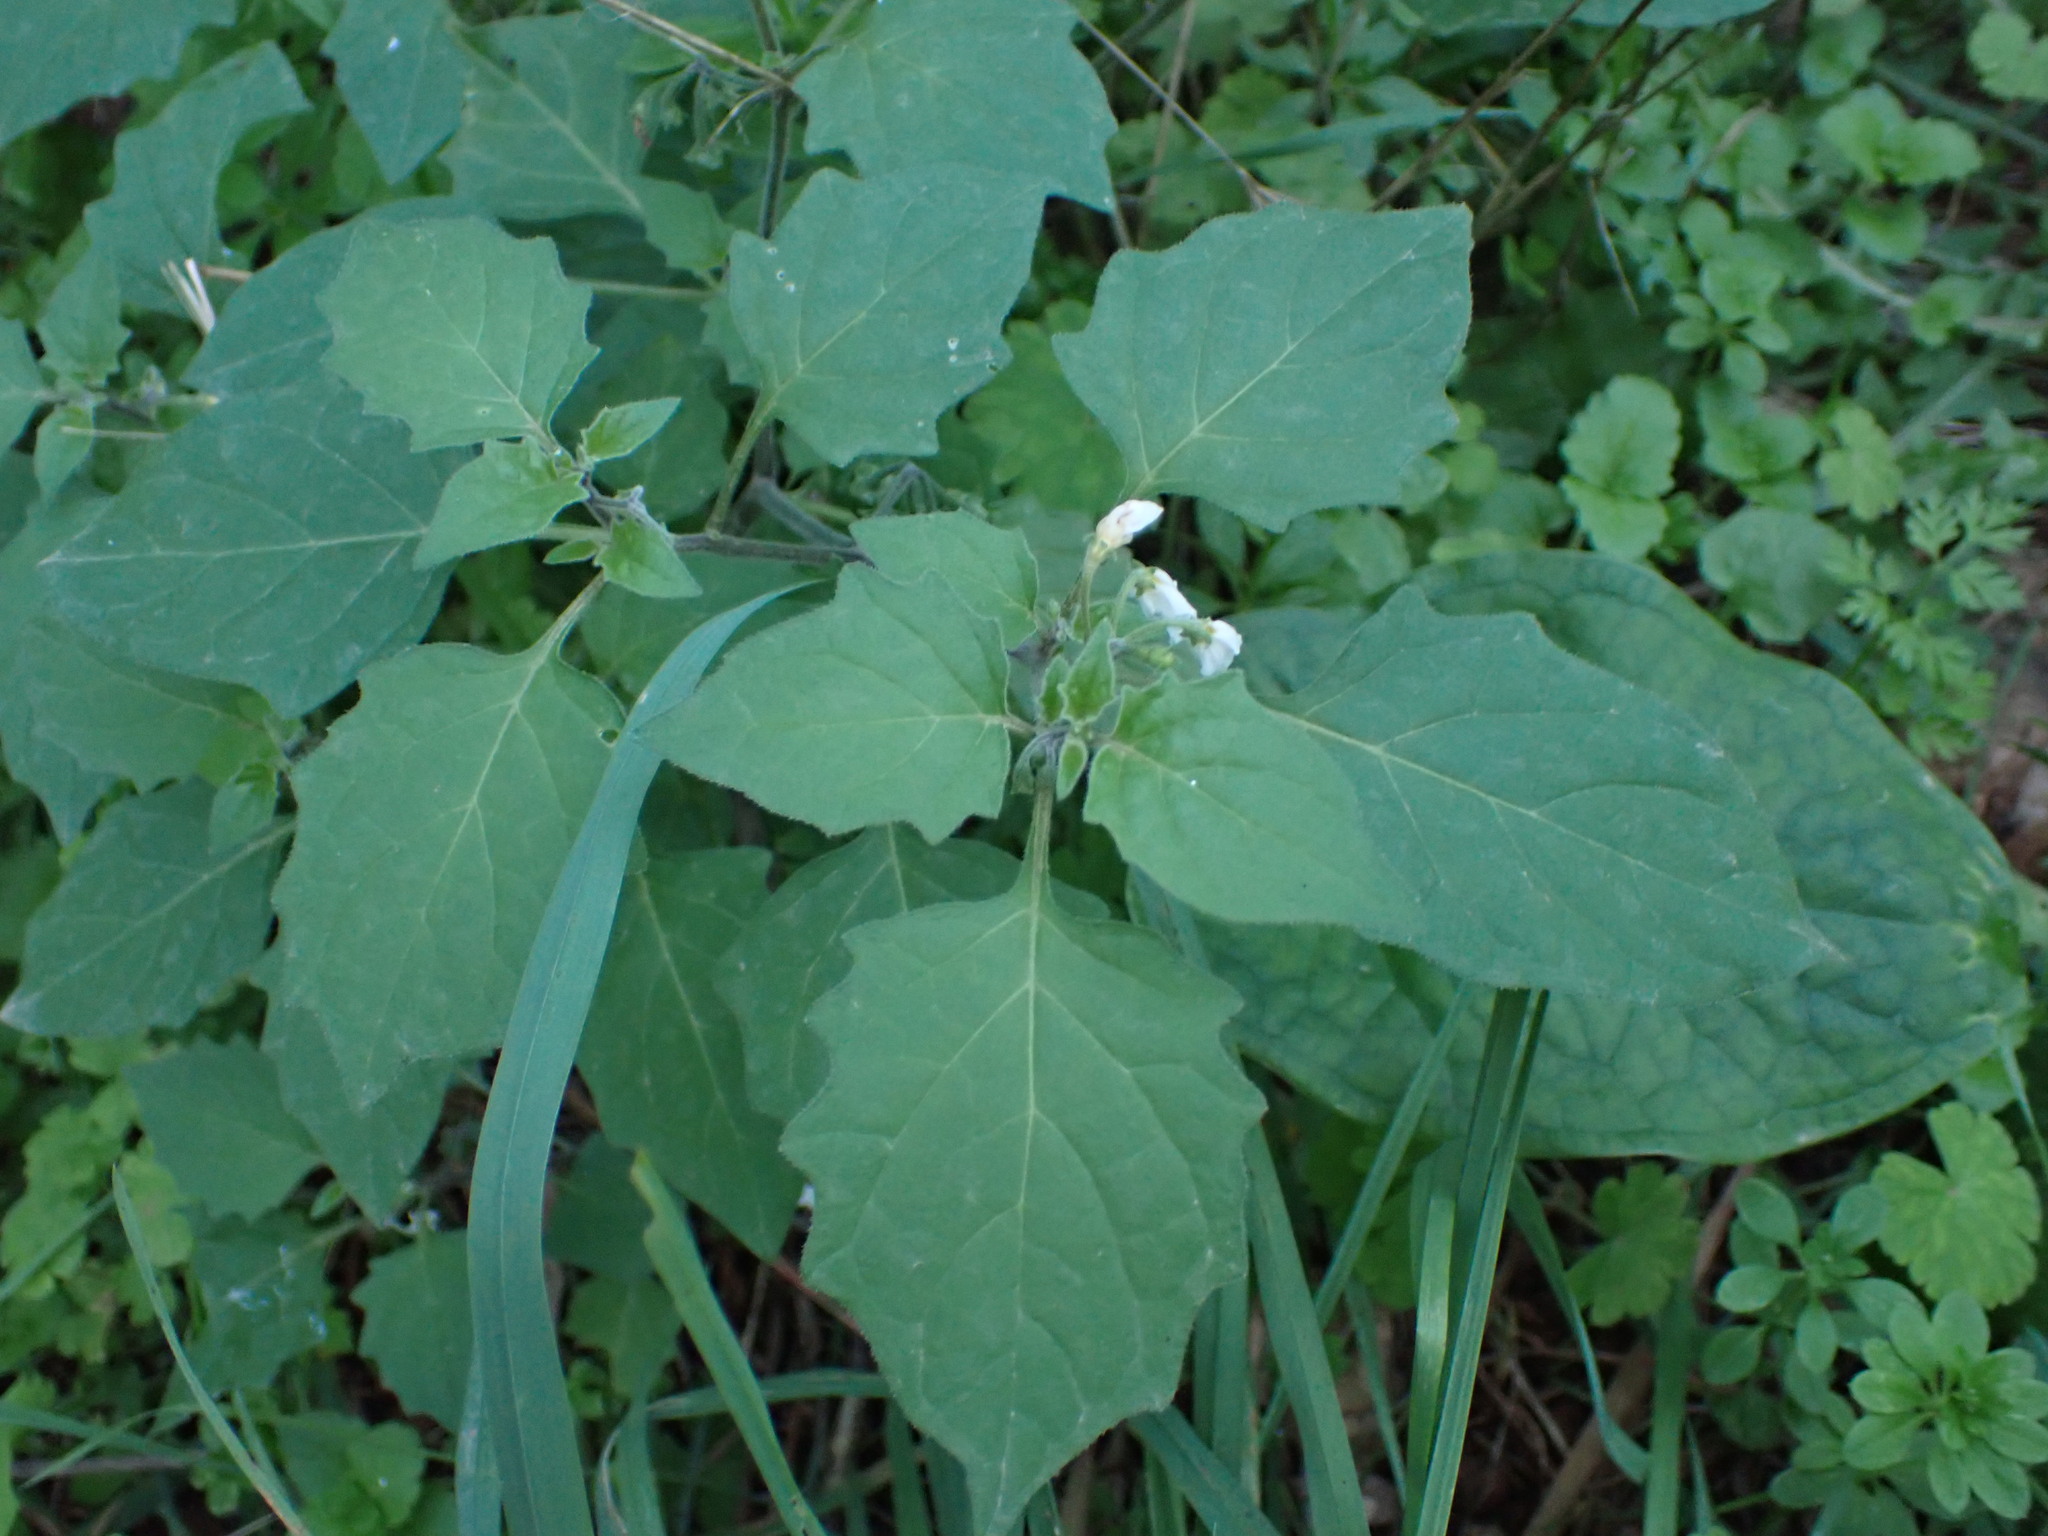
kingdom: Plantae
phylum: Tracheophyta
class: Magnoliopsida
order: Solanales
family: Solanaceae
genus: Solanum
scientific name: Solanum nigrum
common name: Black nightshade
